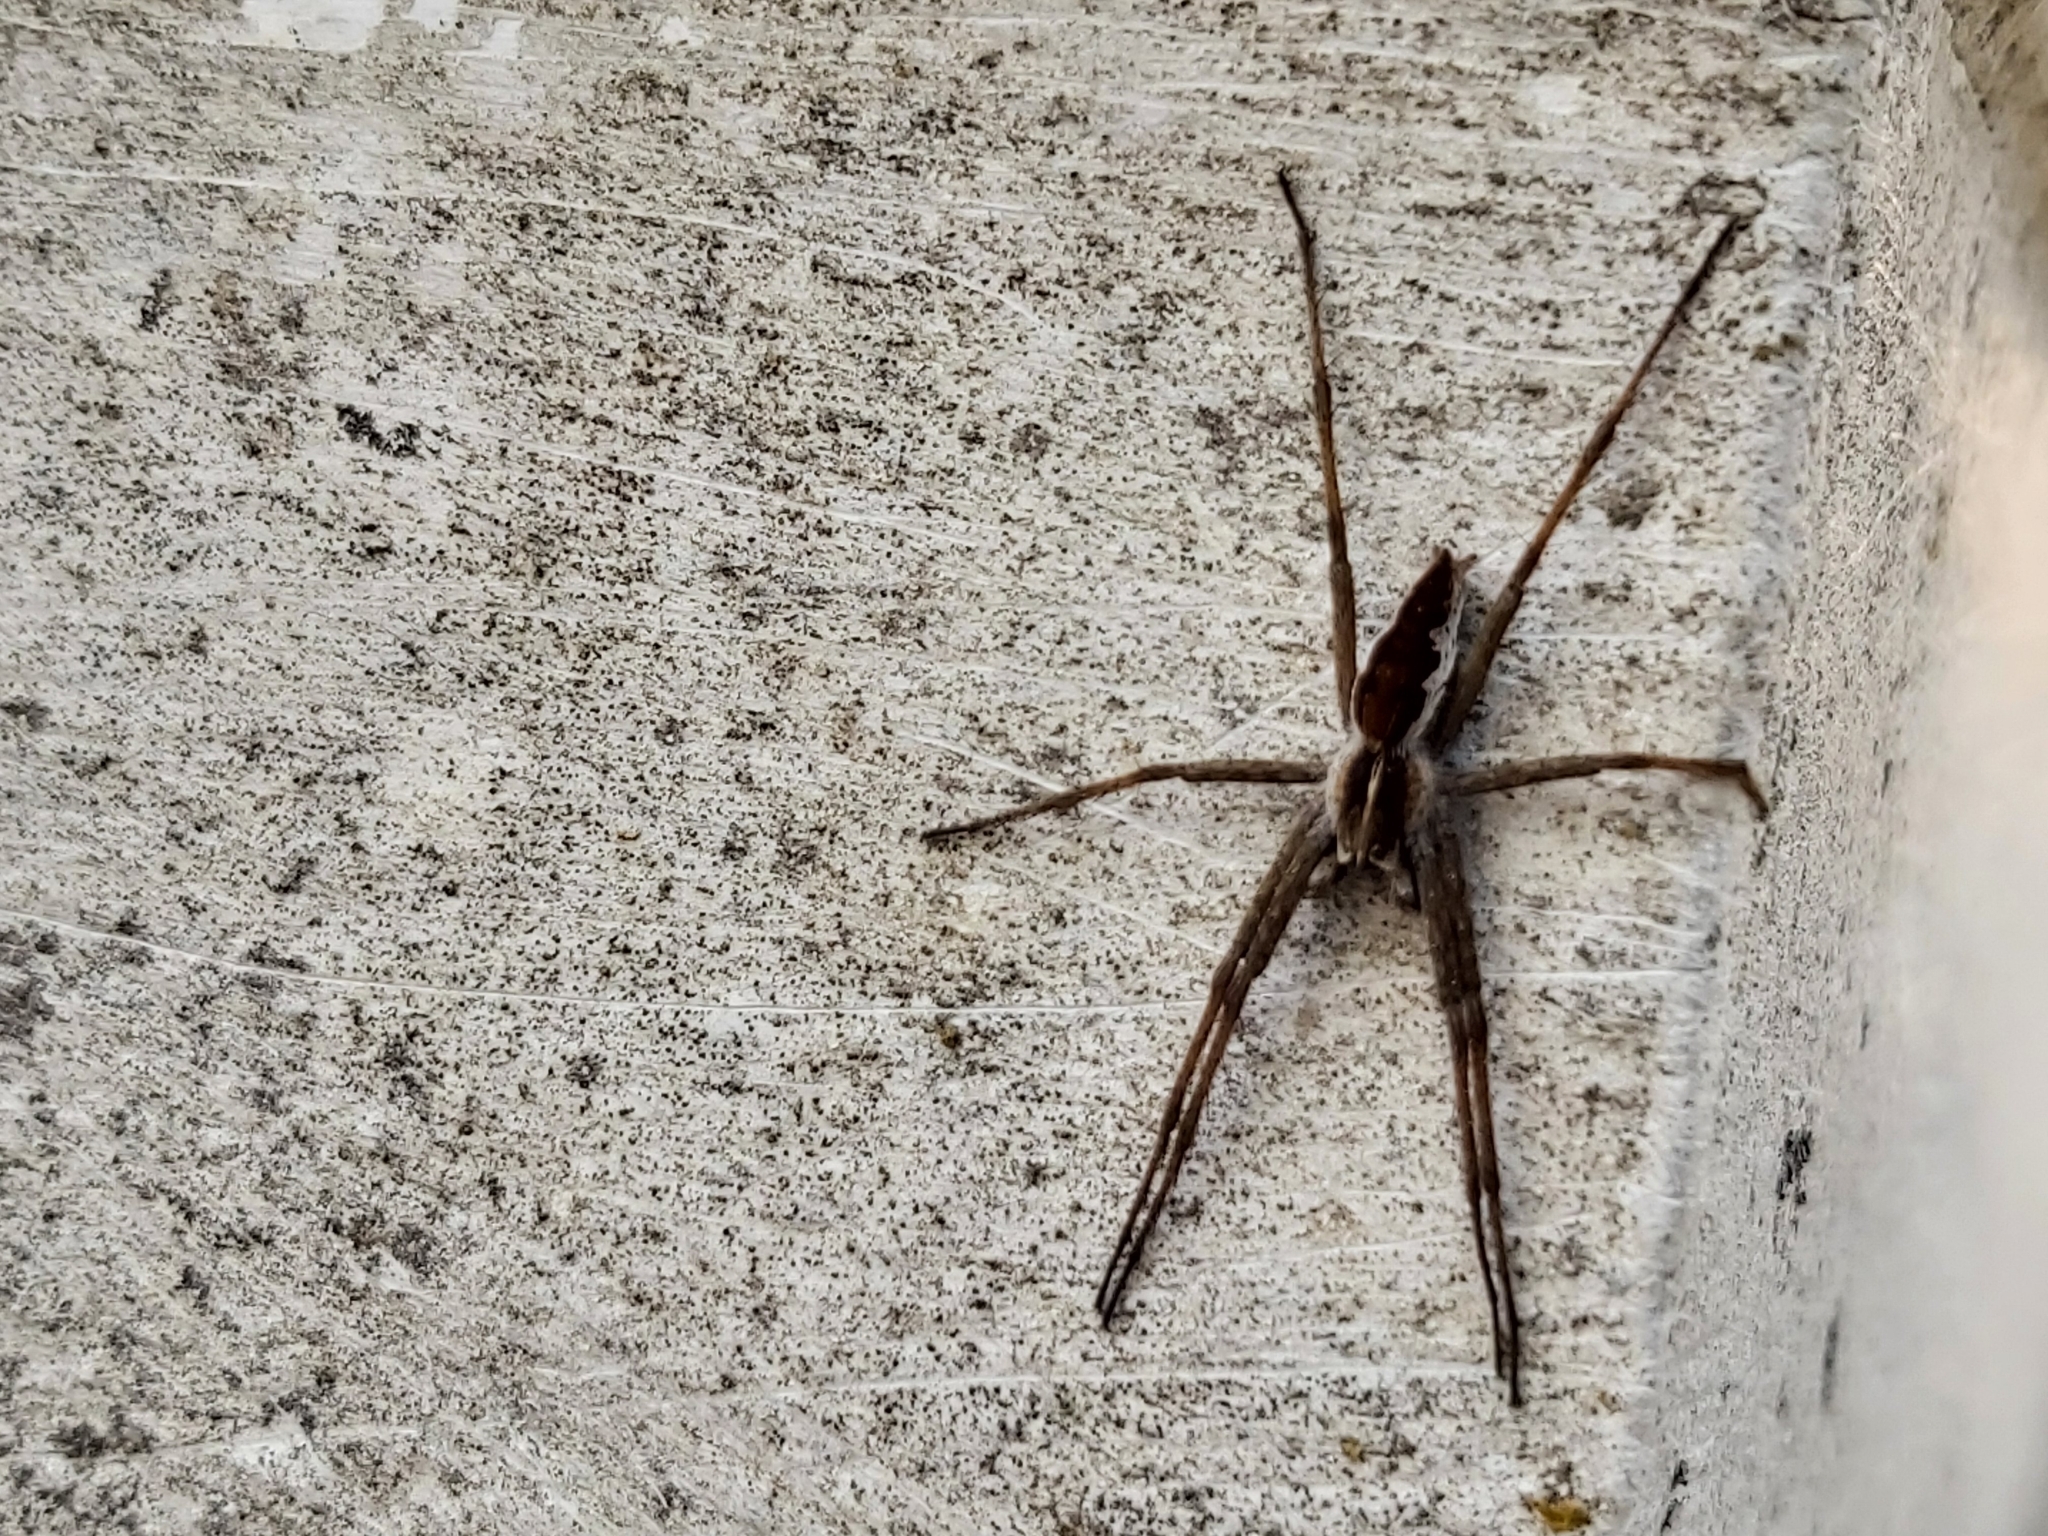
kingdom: Animalia
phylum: Arthropoda
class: Arachnida
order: Araneae
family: Pisauridae
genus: Pisaura
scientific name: Pisaura mirabilis
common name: Tent spider
